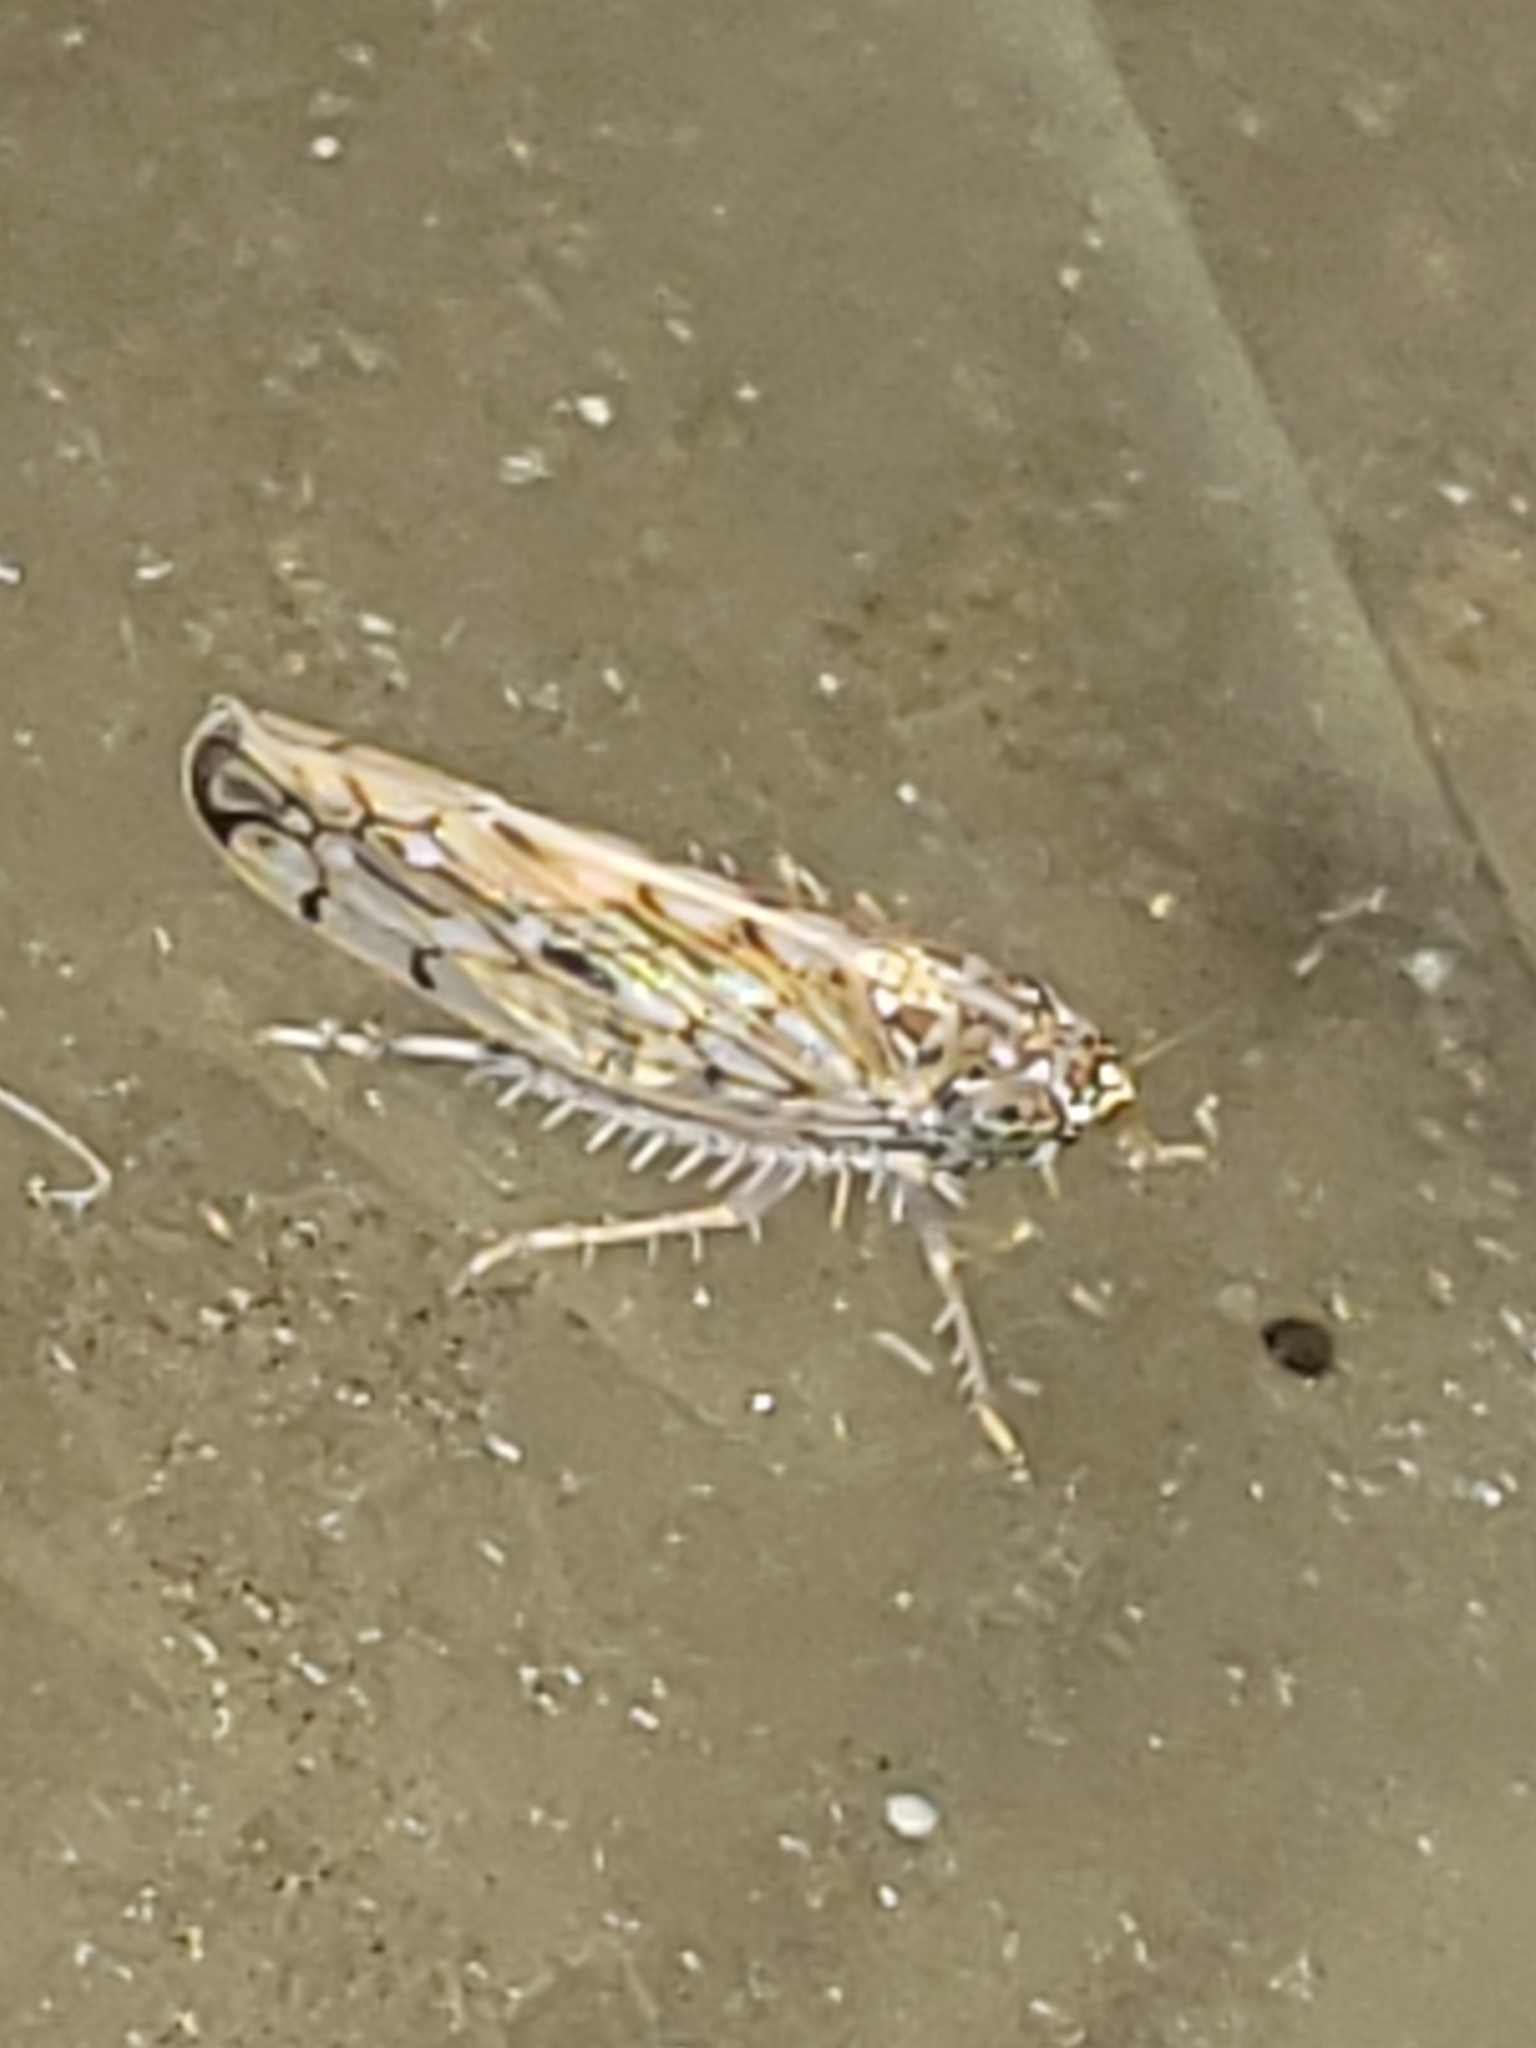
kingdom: Animalia
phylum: Arthropoda
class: Insecta
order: Hemiptera
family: Cicadellidae
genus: Osbornellus
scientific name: Osbornellus clarus
